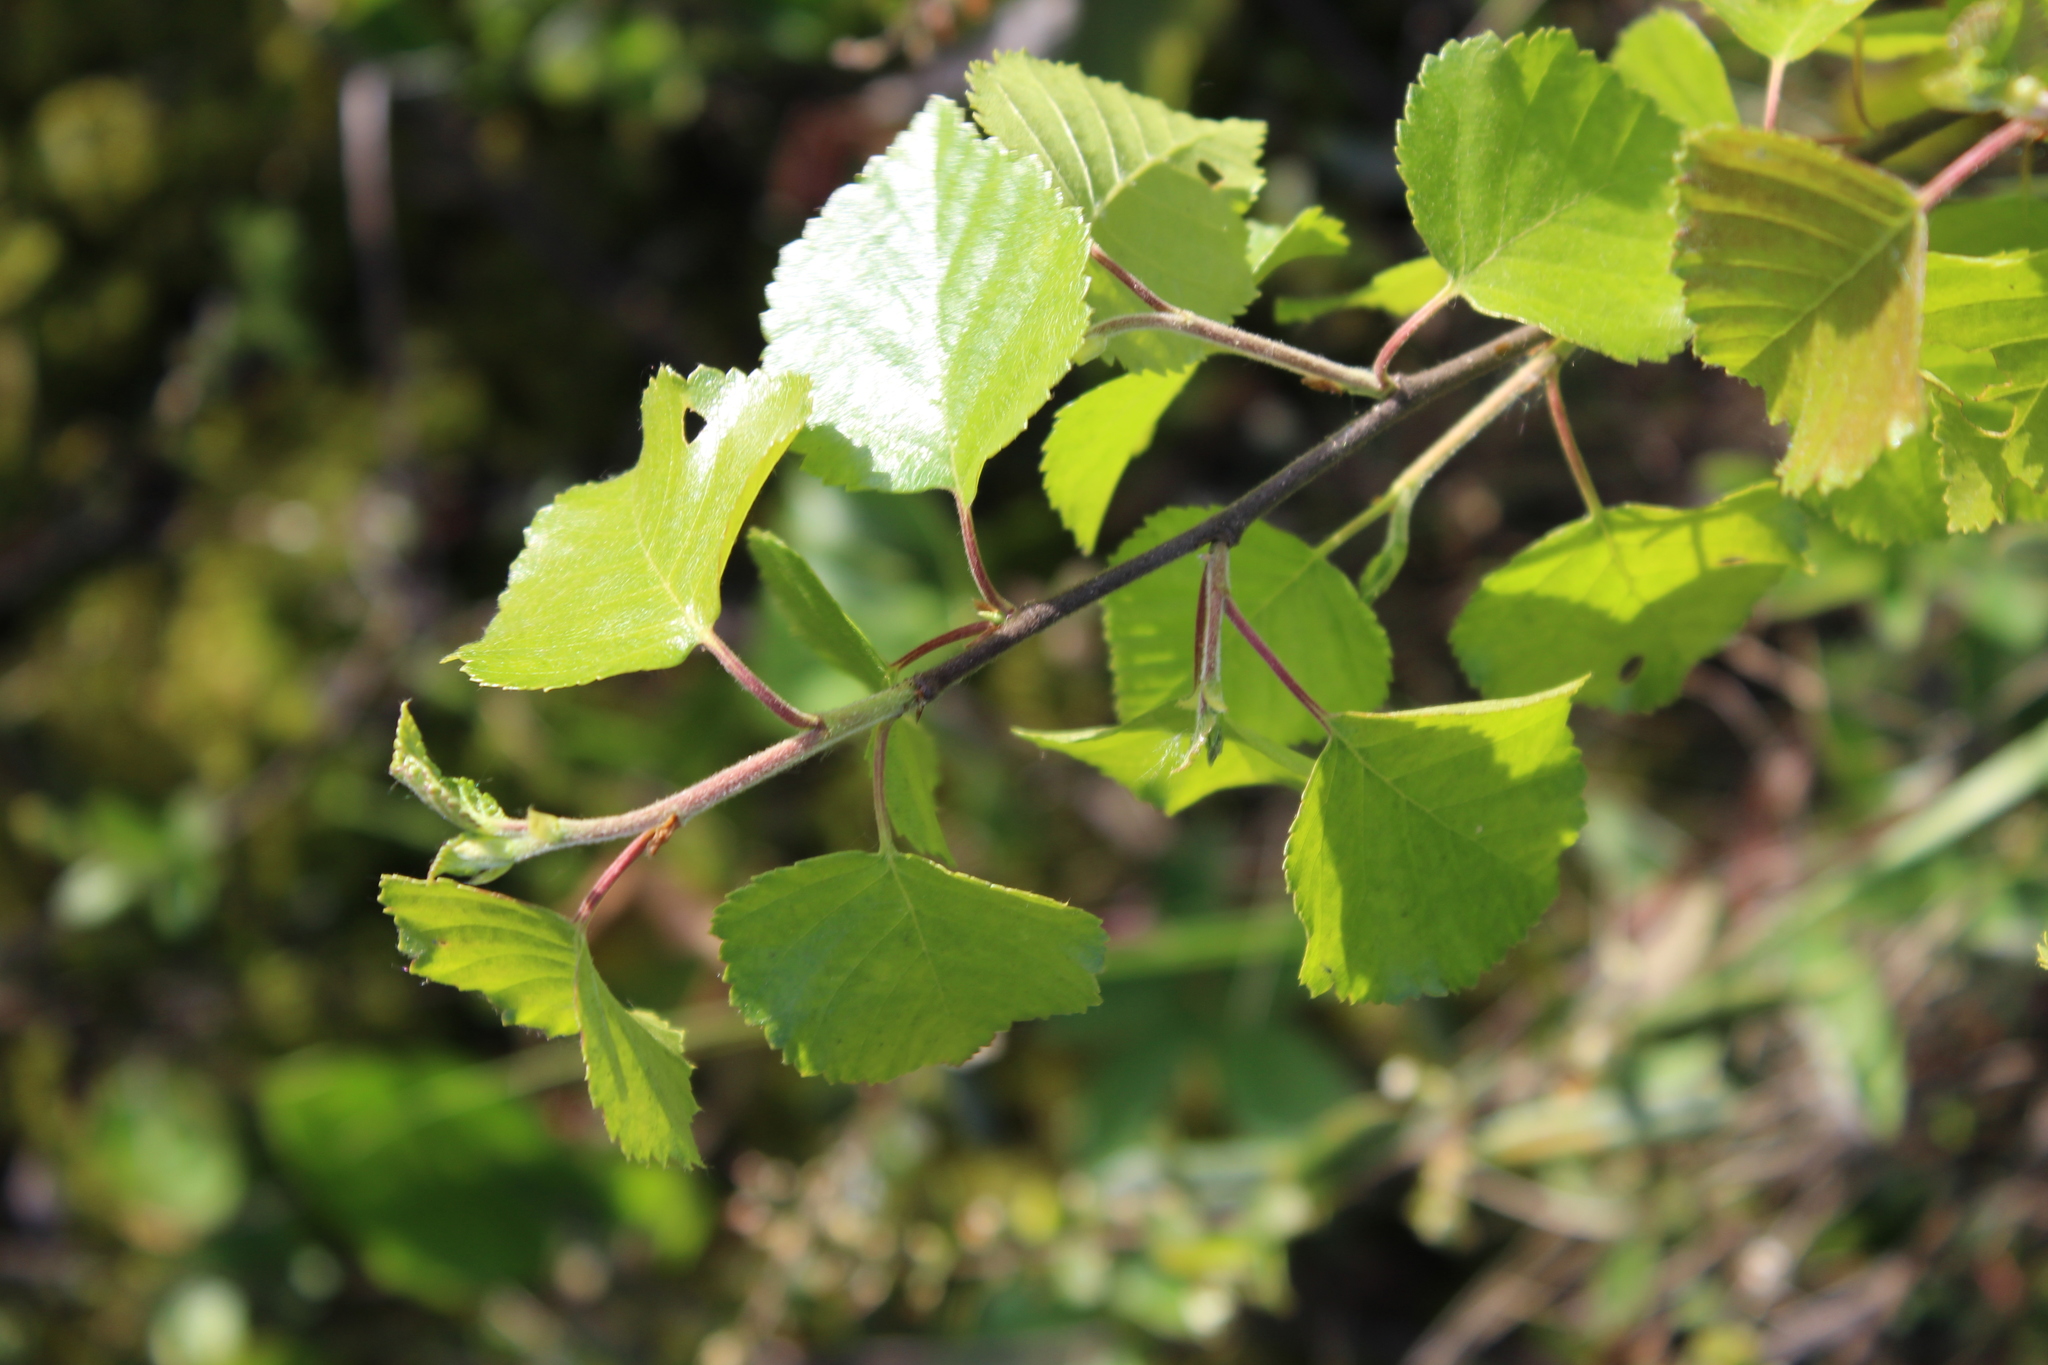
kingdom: Plantae
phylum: Tracheophyta
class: Magnoliopsida
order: Fagales
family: Betulaceae
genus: Betula
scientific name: Betula pubescens
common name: Downy birch
